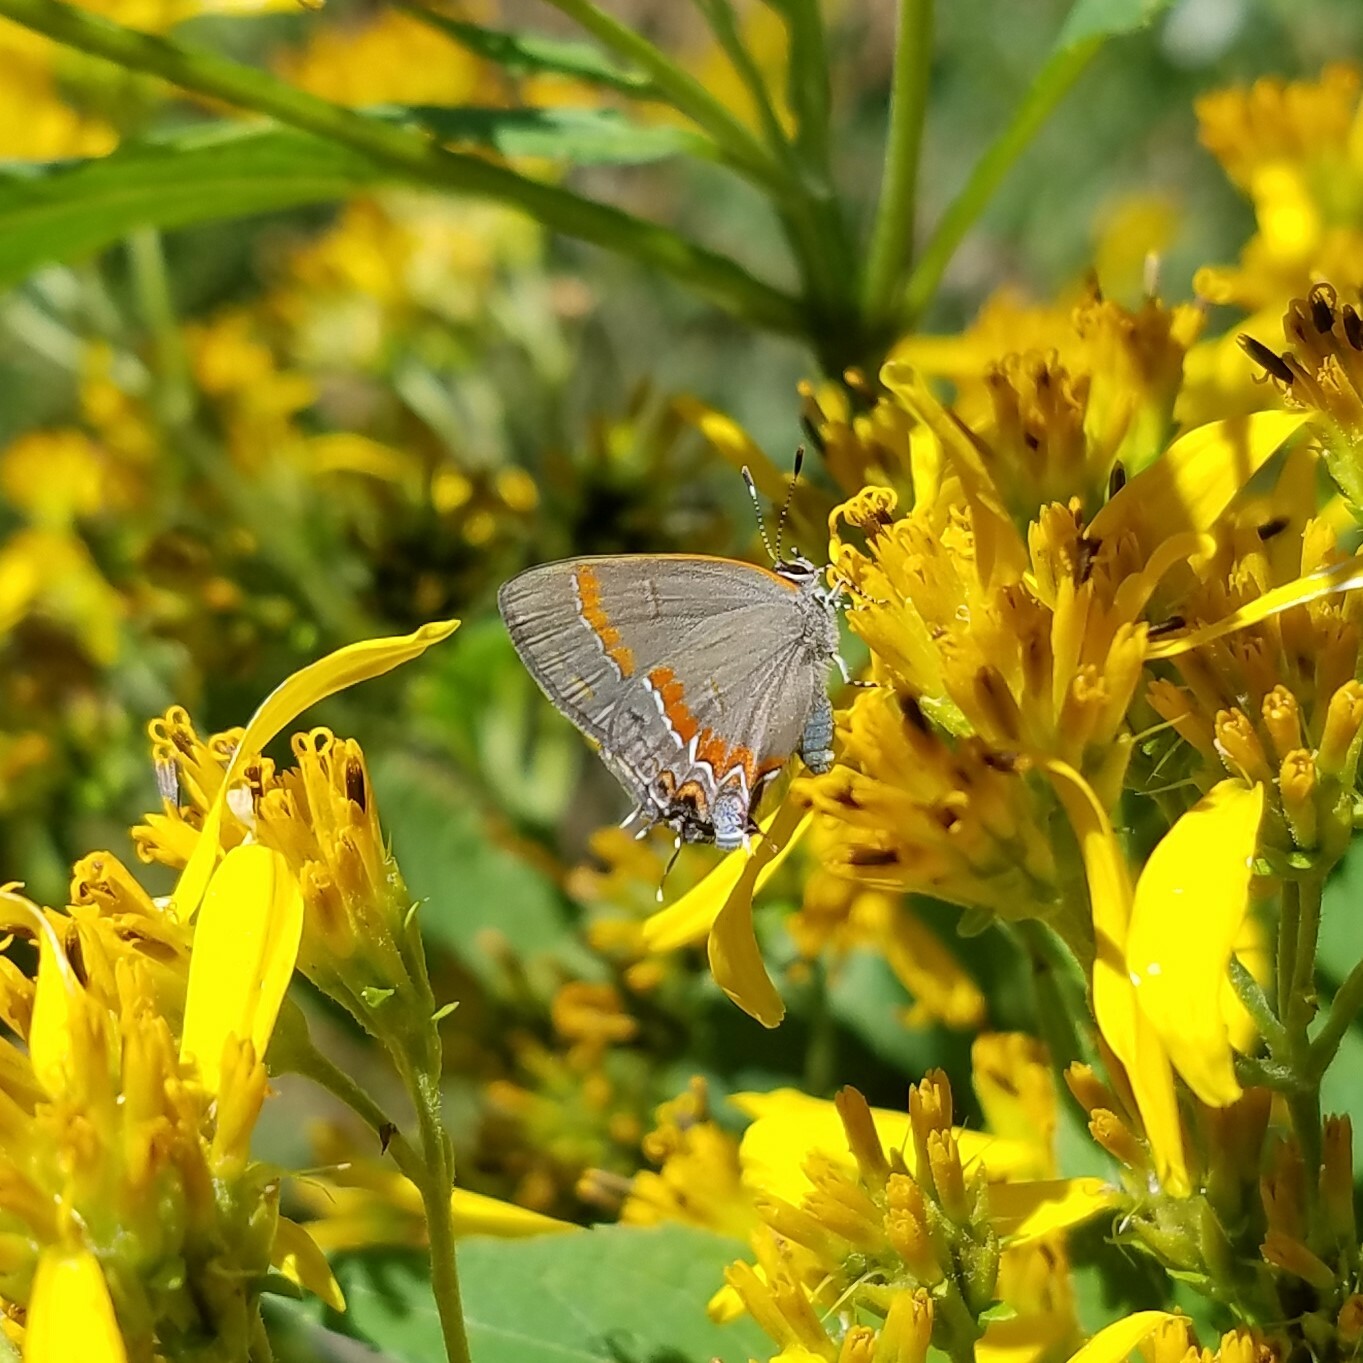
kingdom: Animalia
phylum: Arthropoda
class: Insecta
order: Lepidoptera
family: Lycaenidae
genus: Calycopis
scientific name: Calycopis cecrops
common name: Red-banded hairstreak
